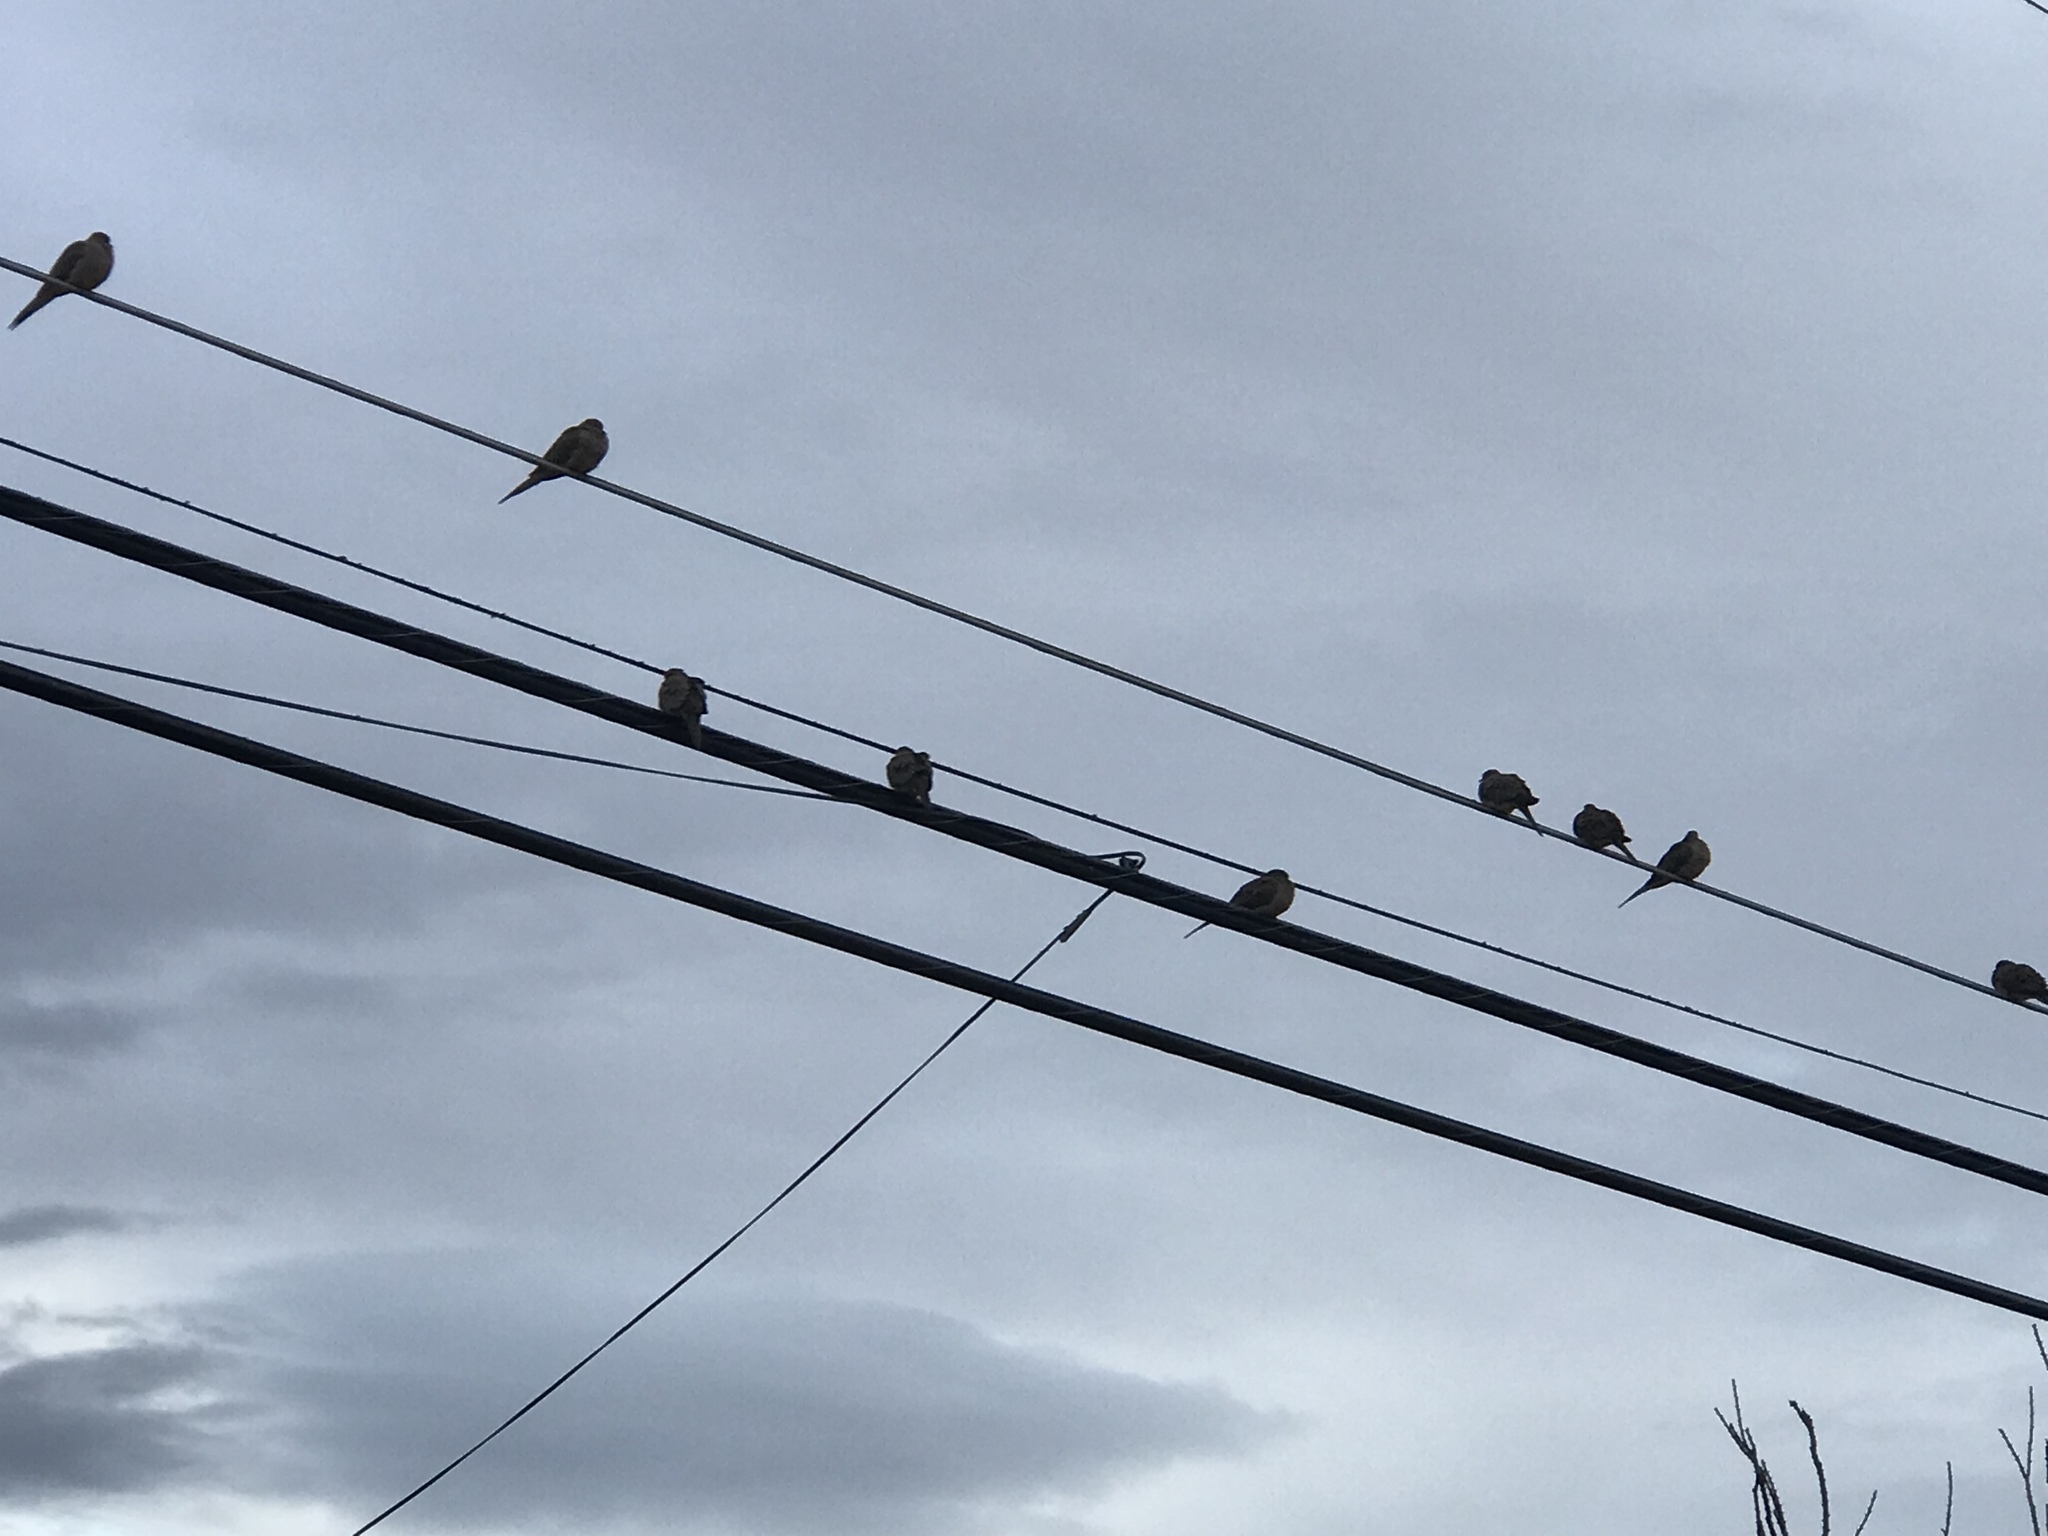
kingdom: Animalia
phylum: Chordata
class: Aves
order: Columbiformes
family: Columbidae
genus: Zenaida
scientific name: Zenaida macroura
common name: Mourning dove
